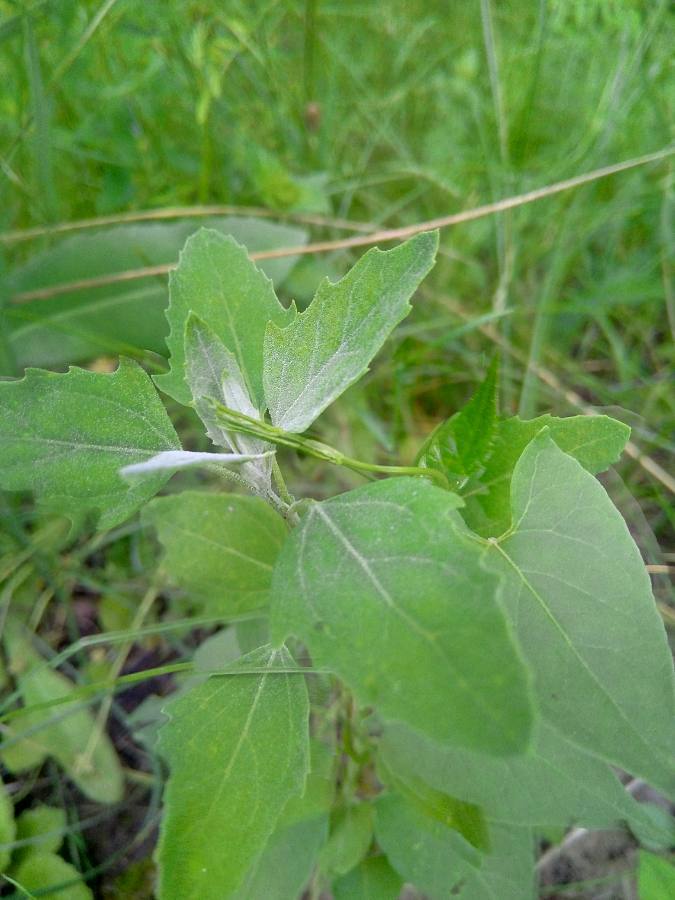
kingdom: Plantae
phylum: Tracheophyta
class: Magnoliopsida
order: Caryophyllales
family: Amaranthaceae
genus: Chenopodium
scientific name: Chenopodium album
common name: Fat-hen
